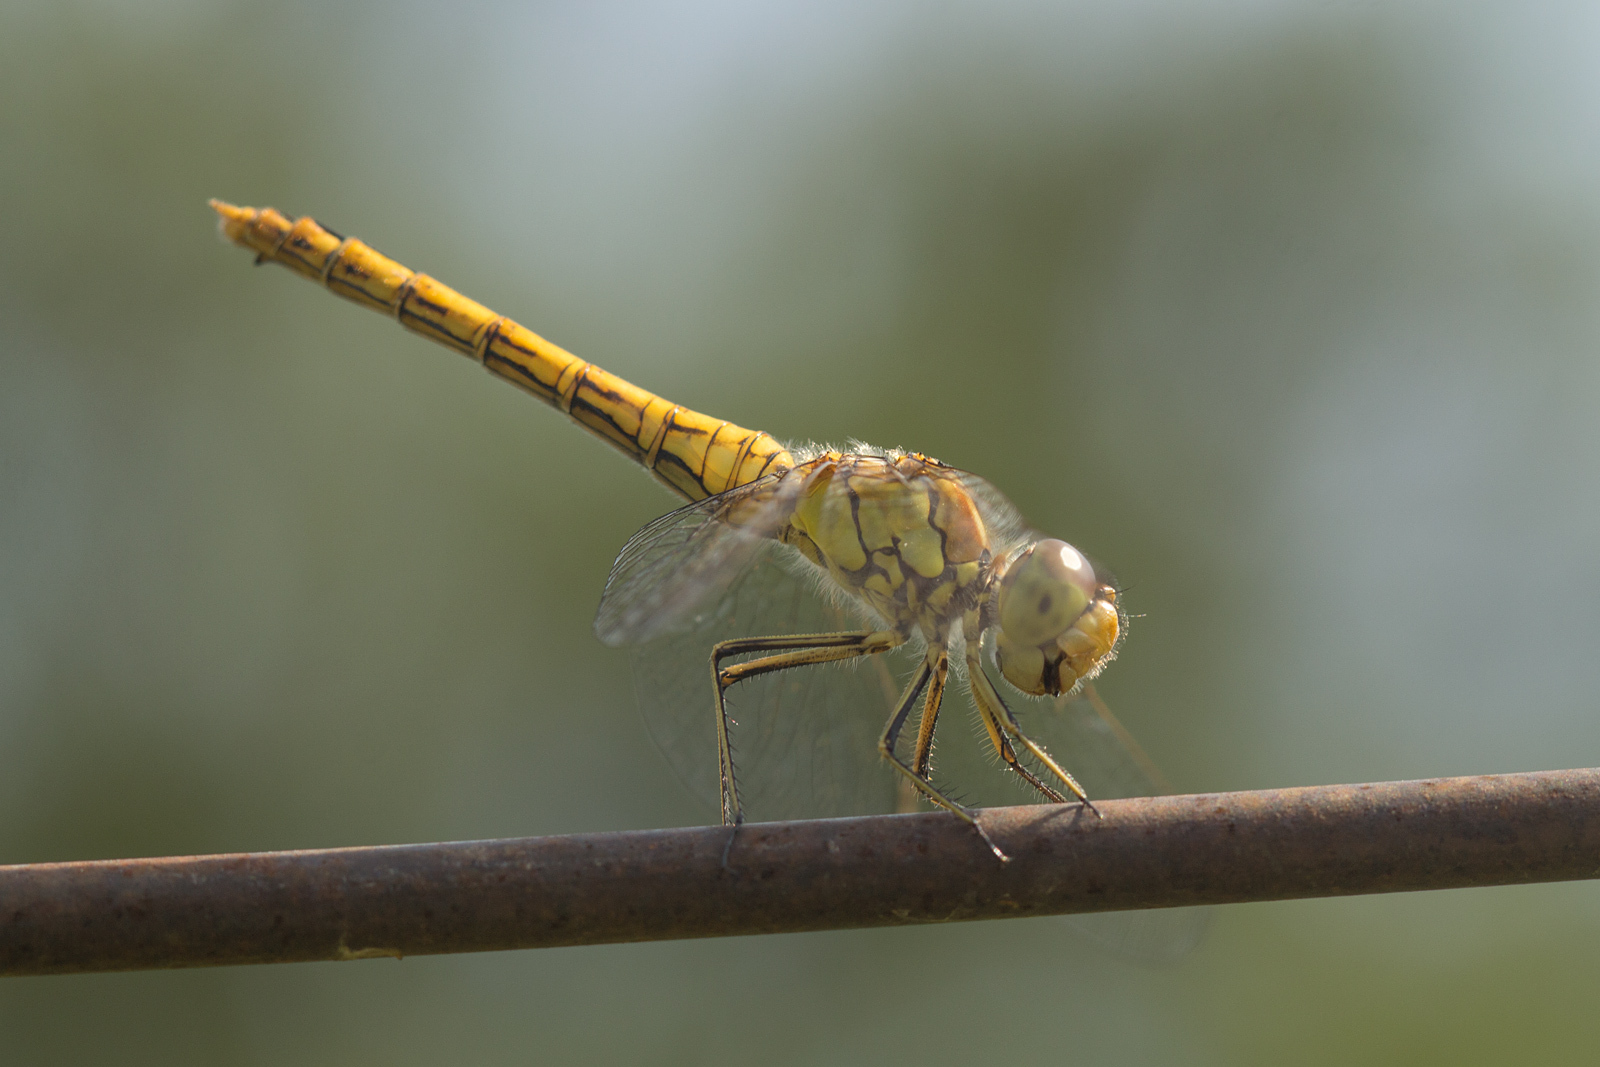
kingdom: Animalia
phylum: Arthropoda
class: Insecta
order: Odonata
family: Libellulidae
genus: Sympetrum
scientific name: Sympetrum vulgatum
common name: Vagrant darter
